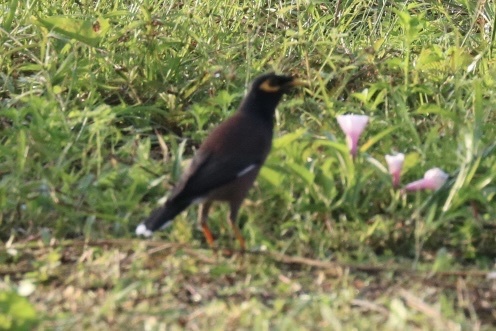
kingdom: Animalia
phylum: Chordata
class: Aves
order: Passeriformes
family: Sturnidae
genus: Acridotheres
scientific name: Acridotheres tristis
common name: Common myna
